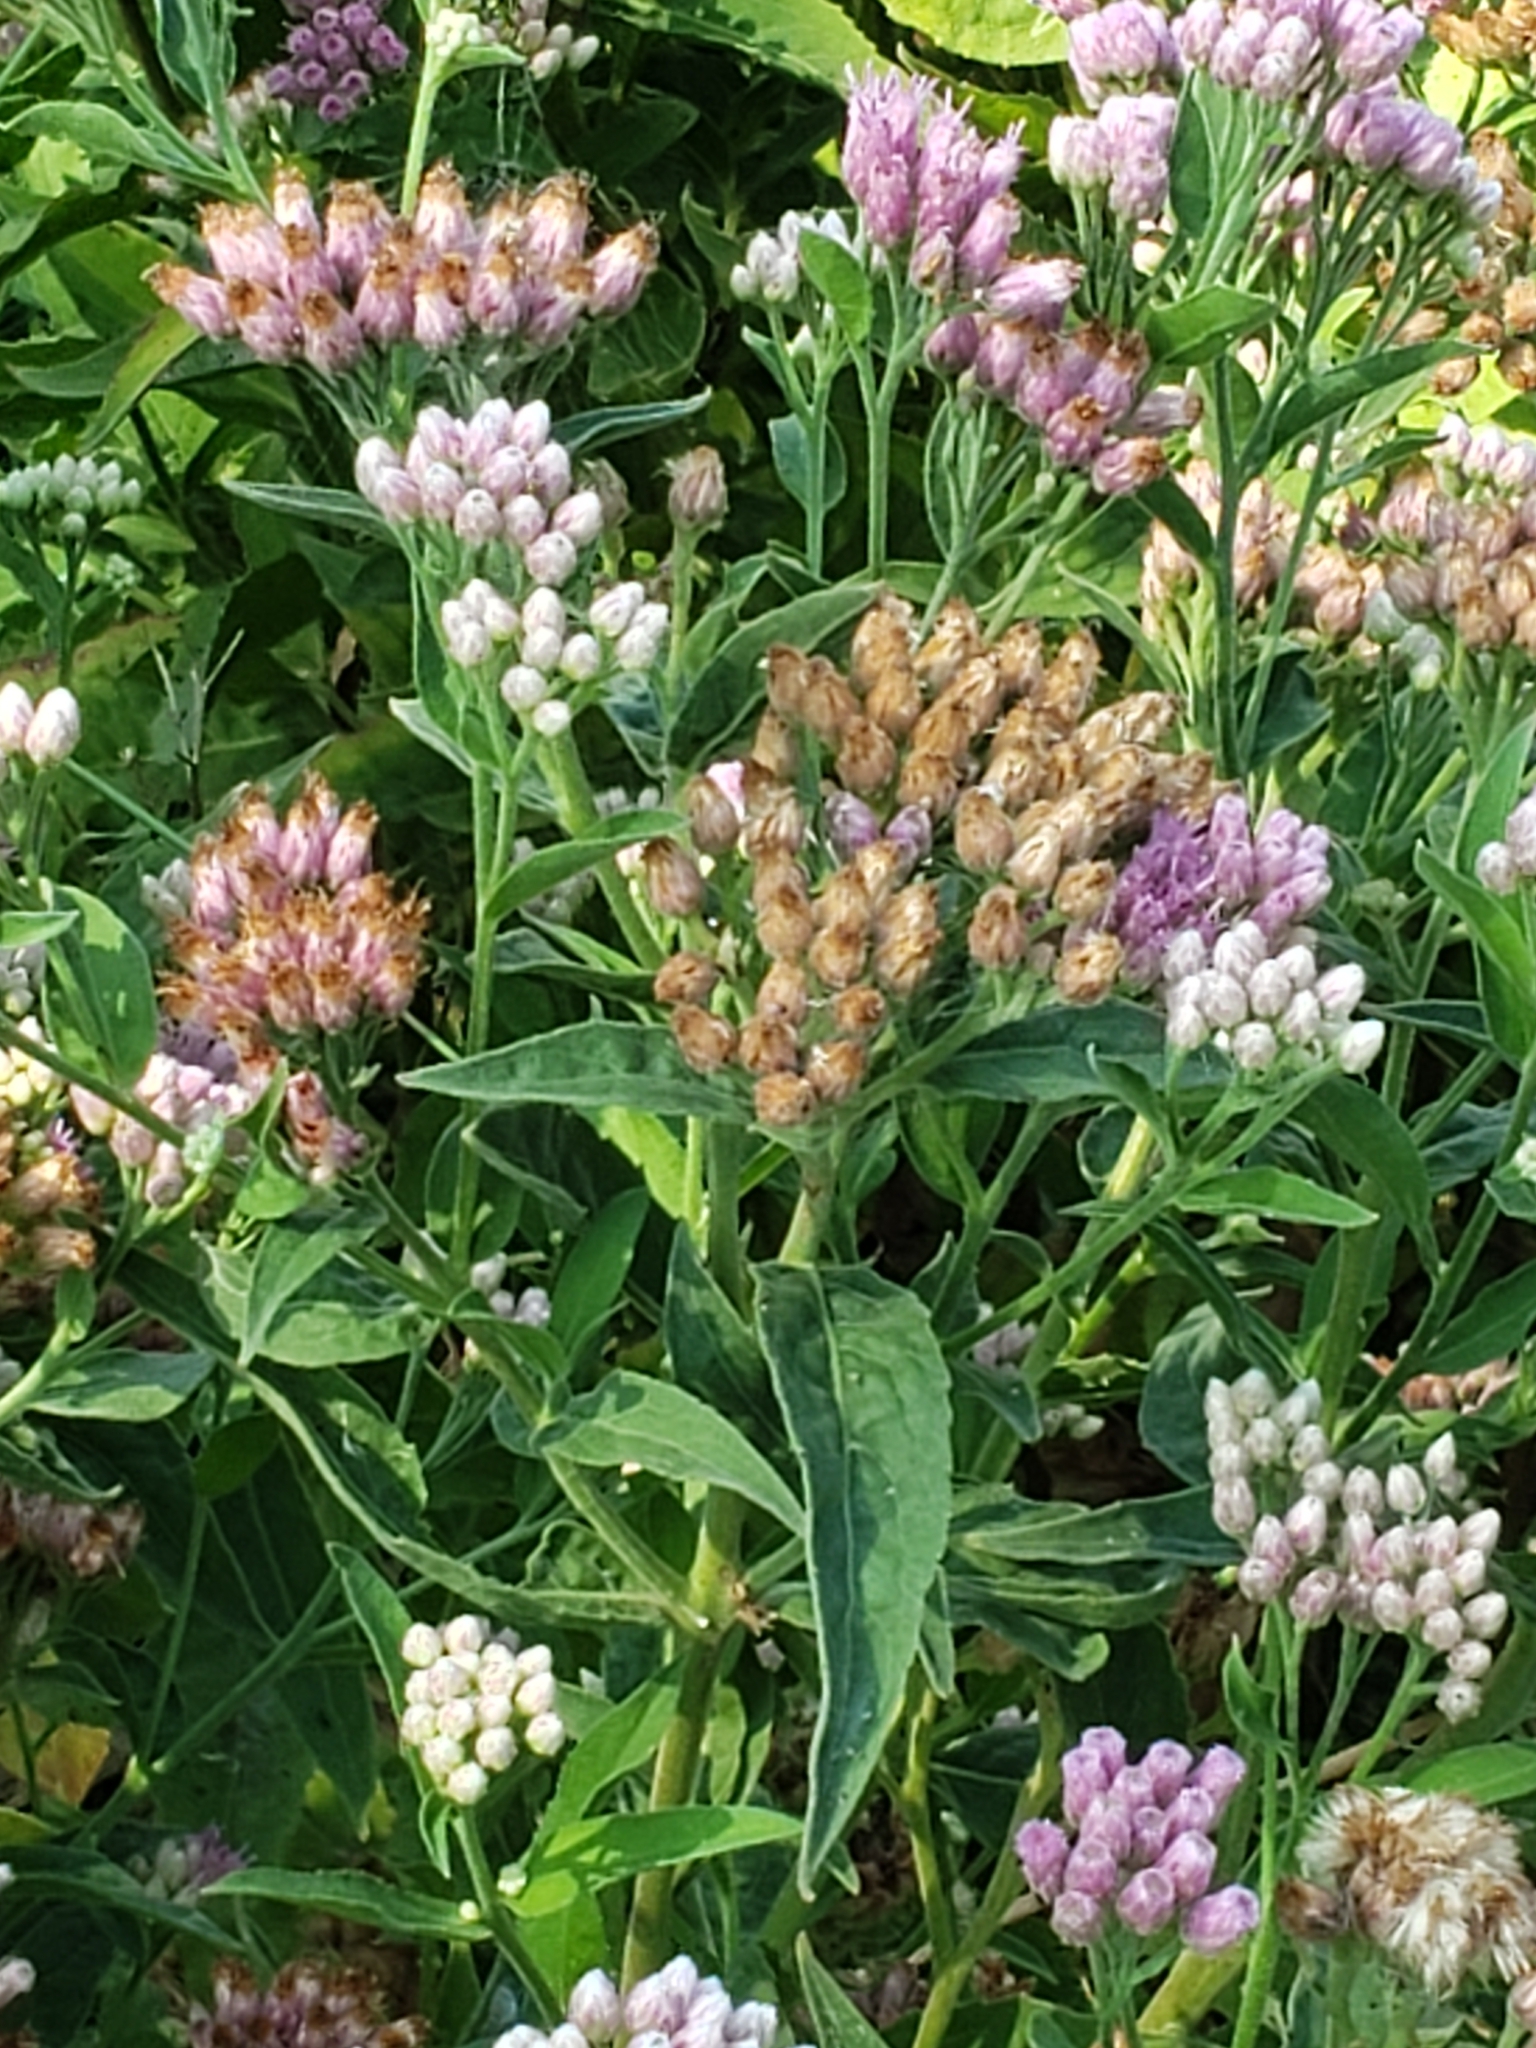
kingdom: Plantae
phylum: Tracheophyta
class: Magnoliopsida
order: Asterales
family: Asteraceae
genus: Pluchea
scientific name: Pluchea odorata
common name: Saltmarsh fleabane
